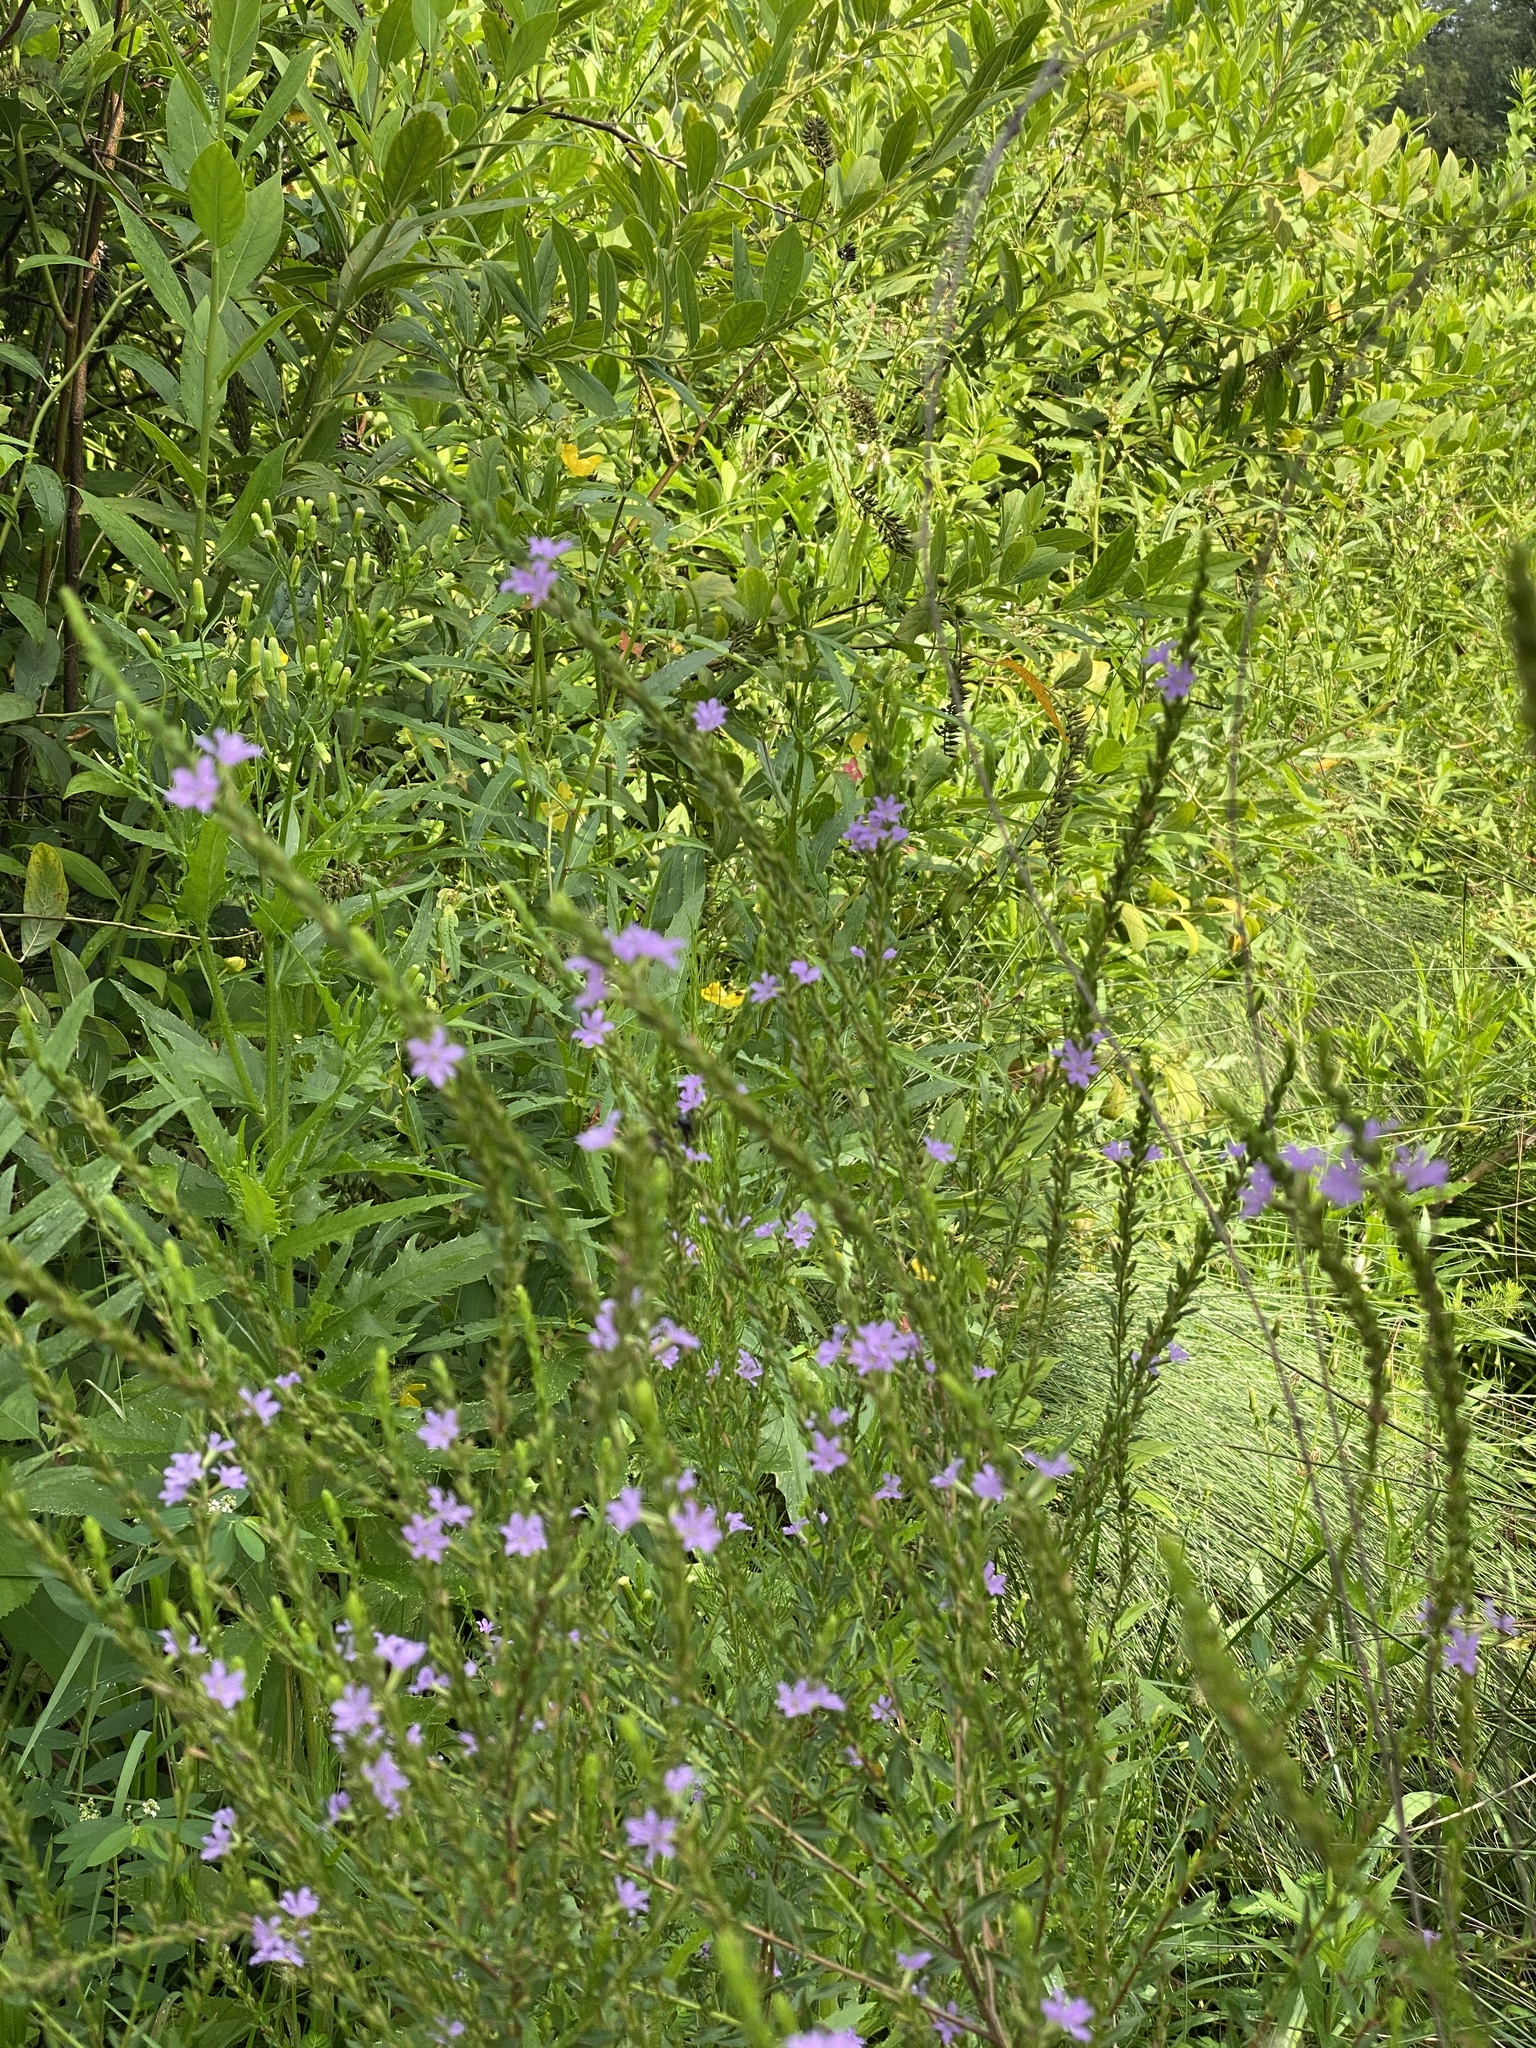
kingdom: Plantae
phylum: Tracheophyta
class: Magnoliopsida
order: Myrtales
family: Lythraceae
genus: Lythrum
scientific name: Lythrum alatum
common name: Winged loosestrife
